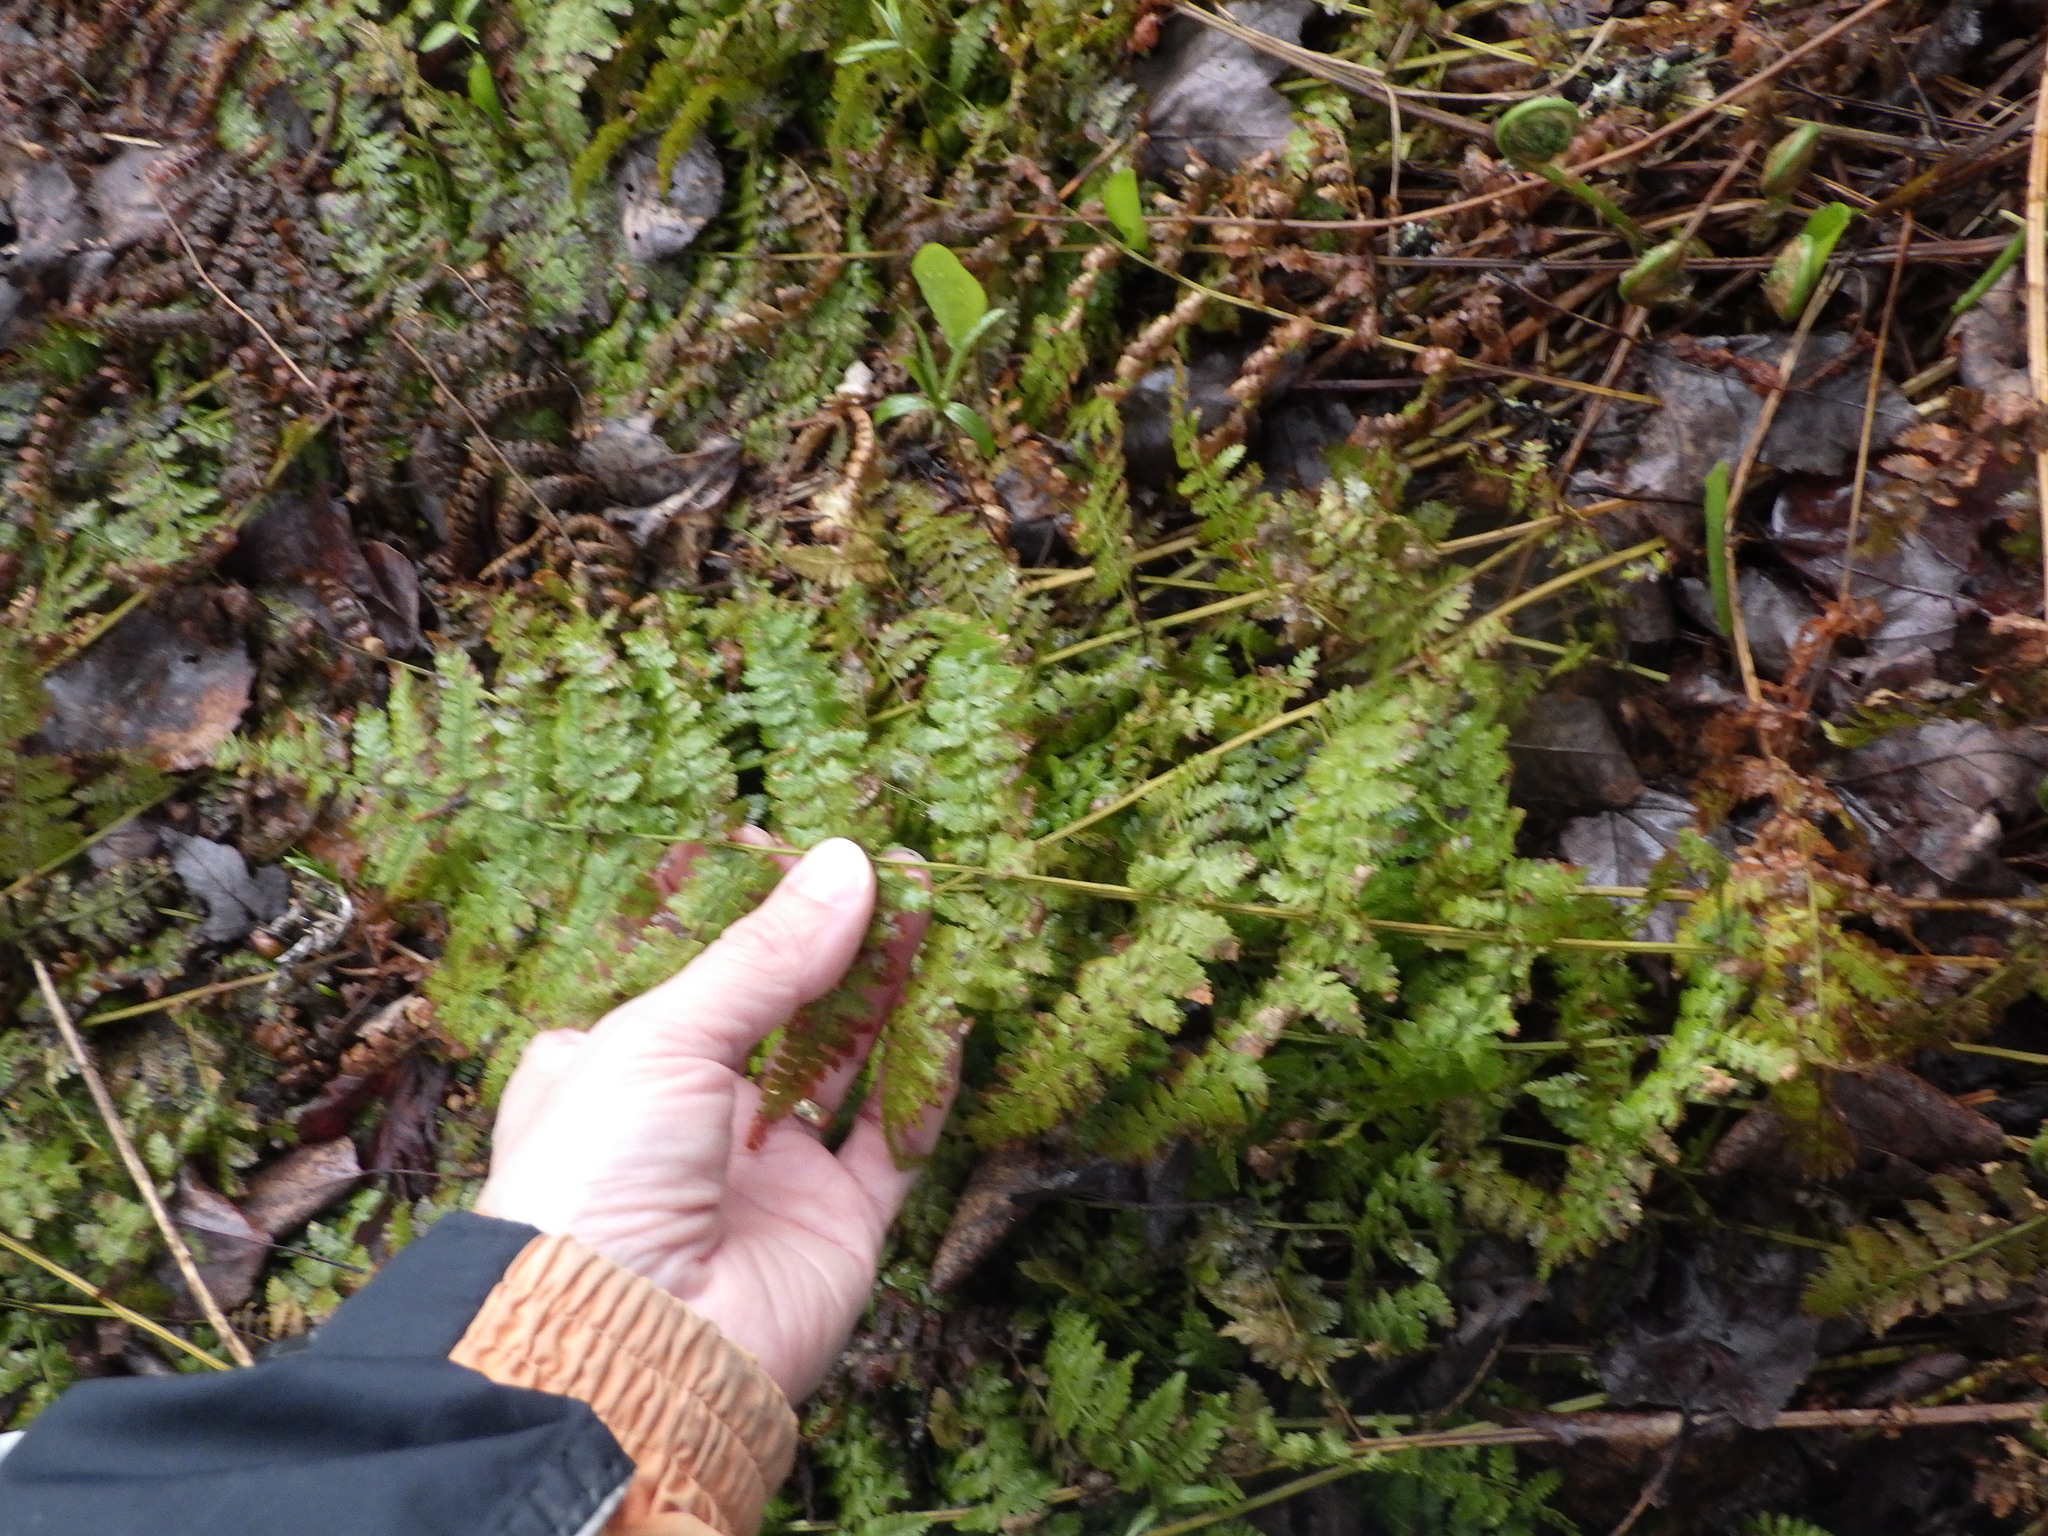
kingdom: Plantae
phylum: Tracheophyta
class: Polypodiopsida
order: Polypodiales
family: Dryopteridaceae
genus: Dryopteris
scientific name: Dryopteris intermedia
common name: Evergreen wood fern
